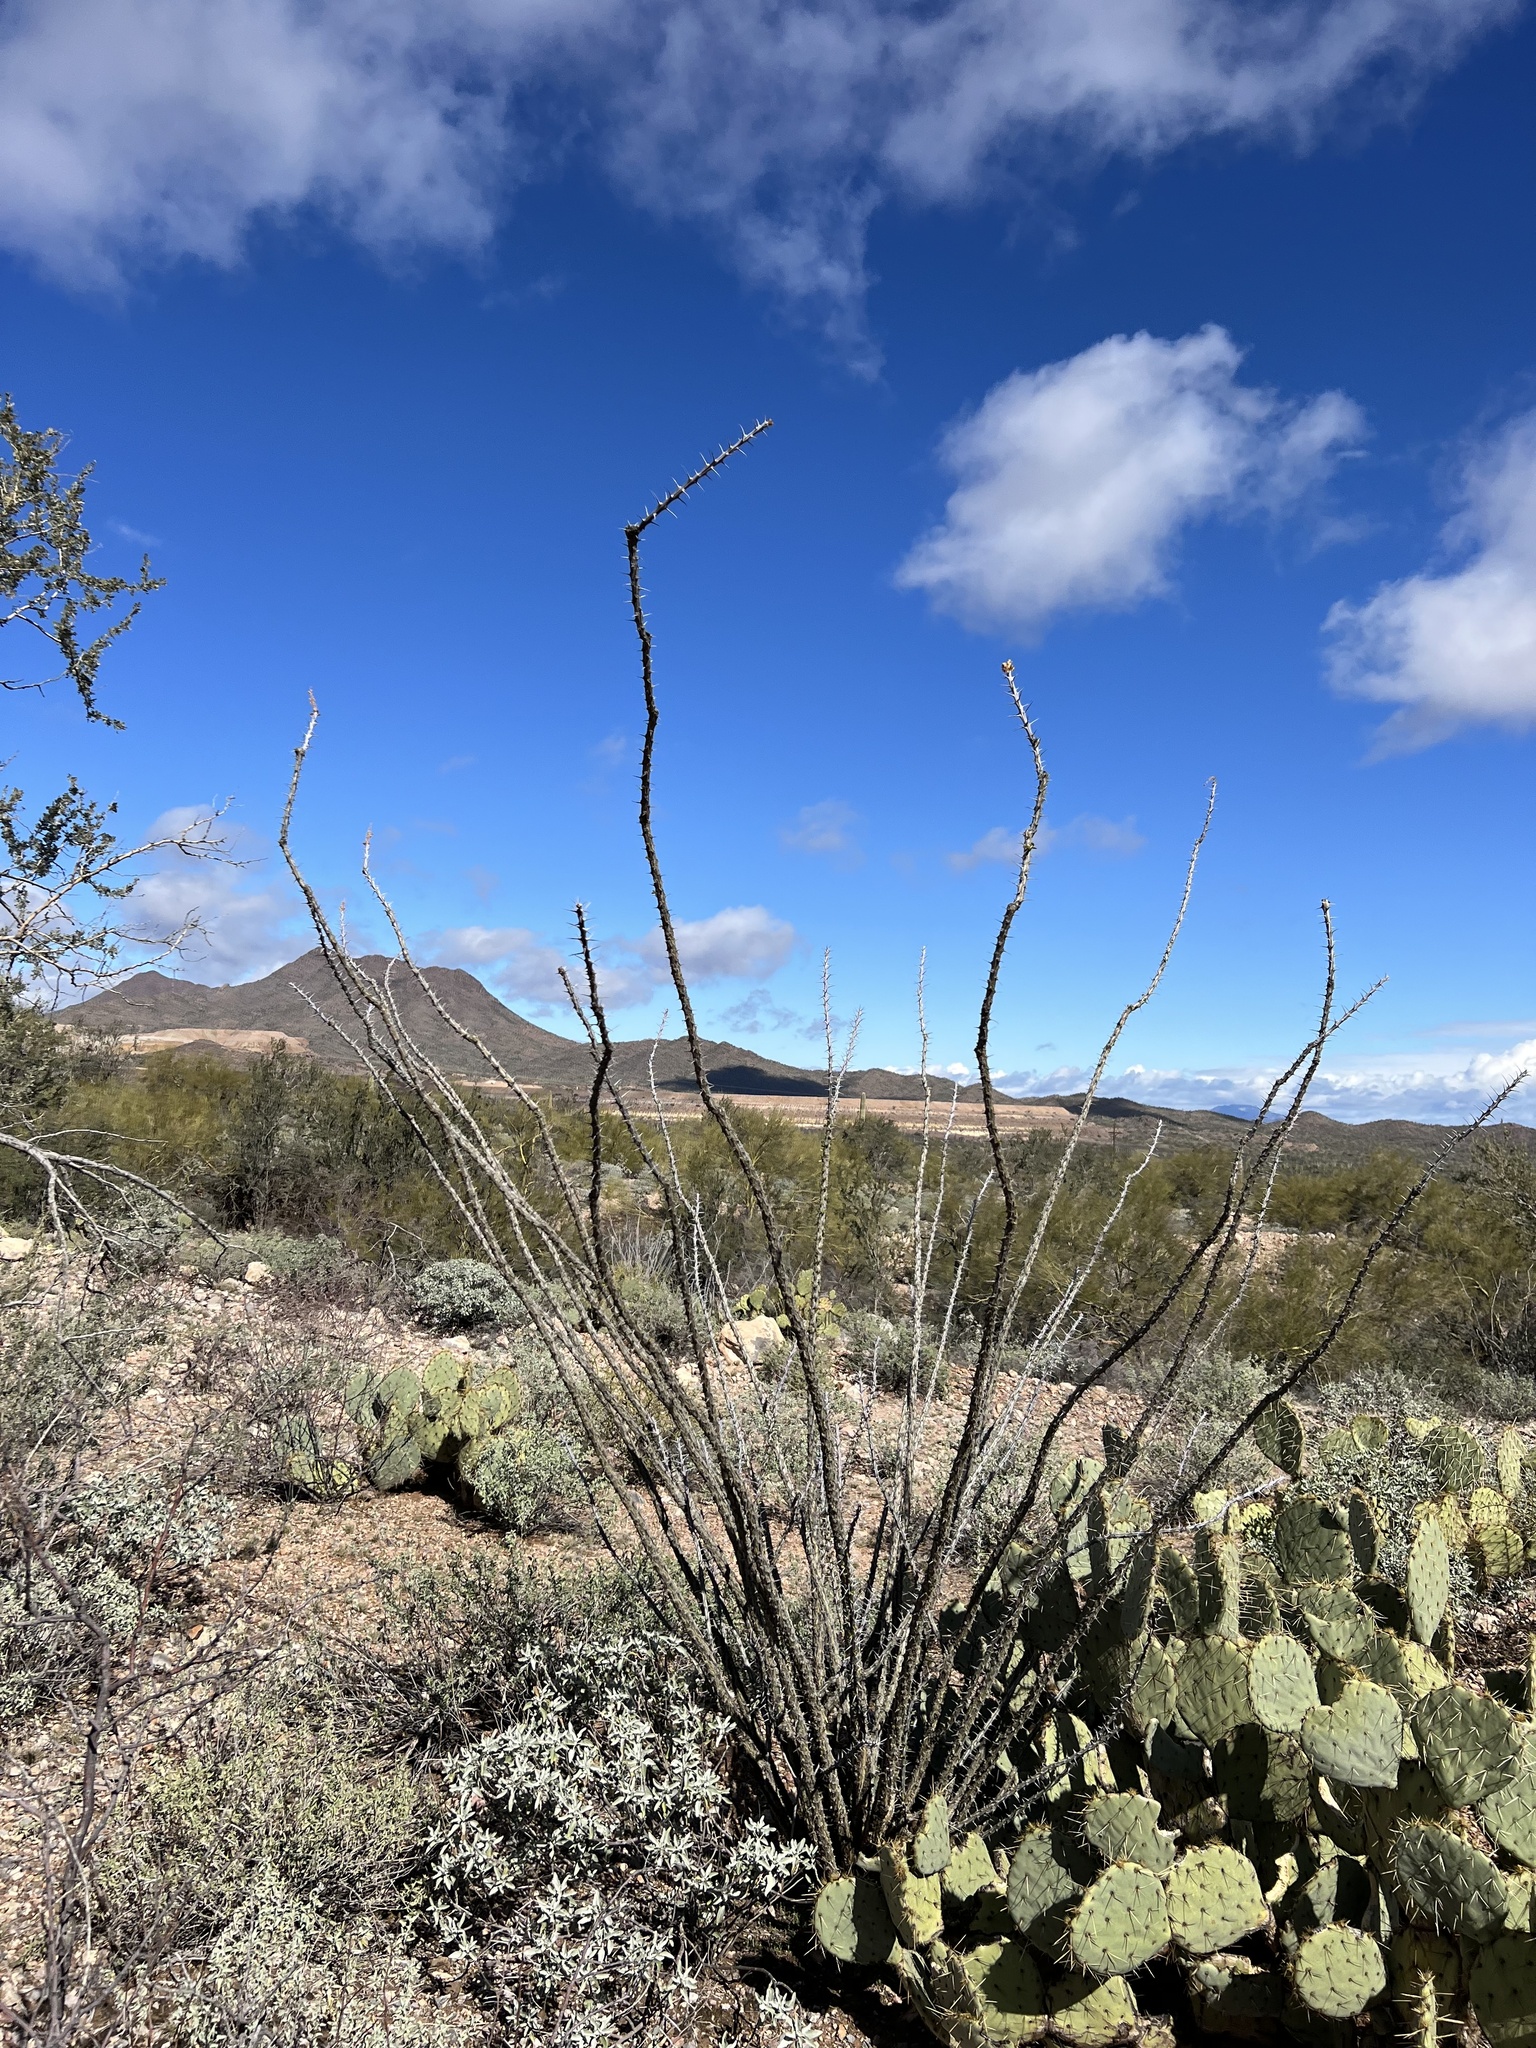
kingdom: Plantae
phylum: Tracheophyta
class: Magnoliopsida
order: Ericales
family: Fouquieriaceae
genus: Fouquieria
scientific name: Fouquieria splendens
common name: Vine-cactus
